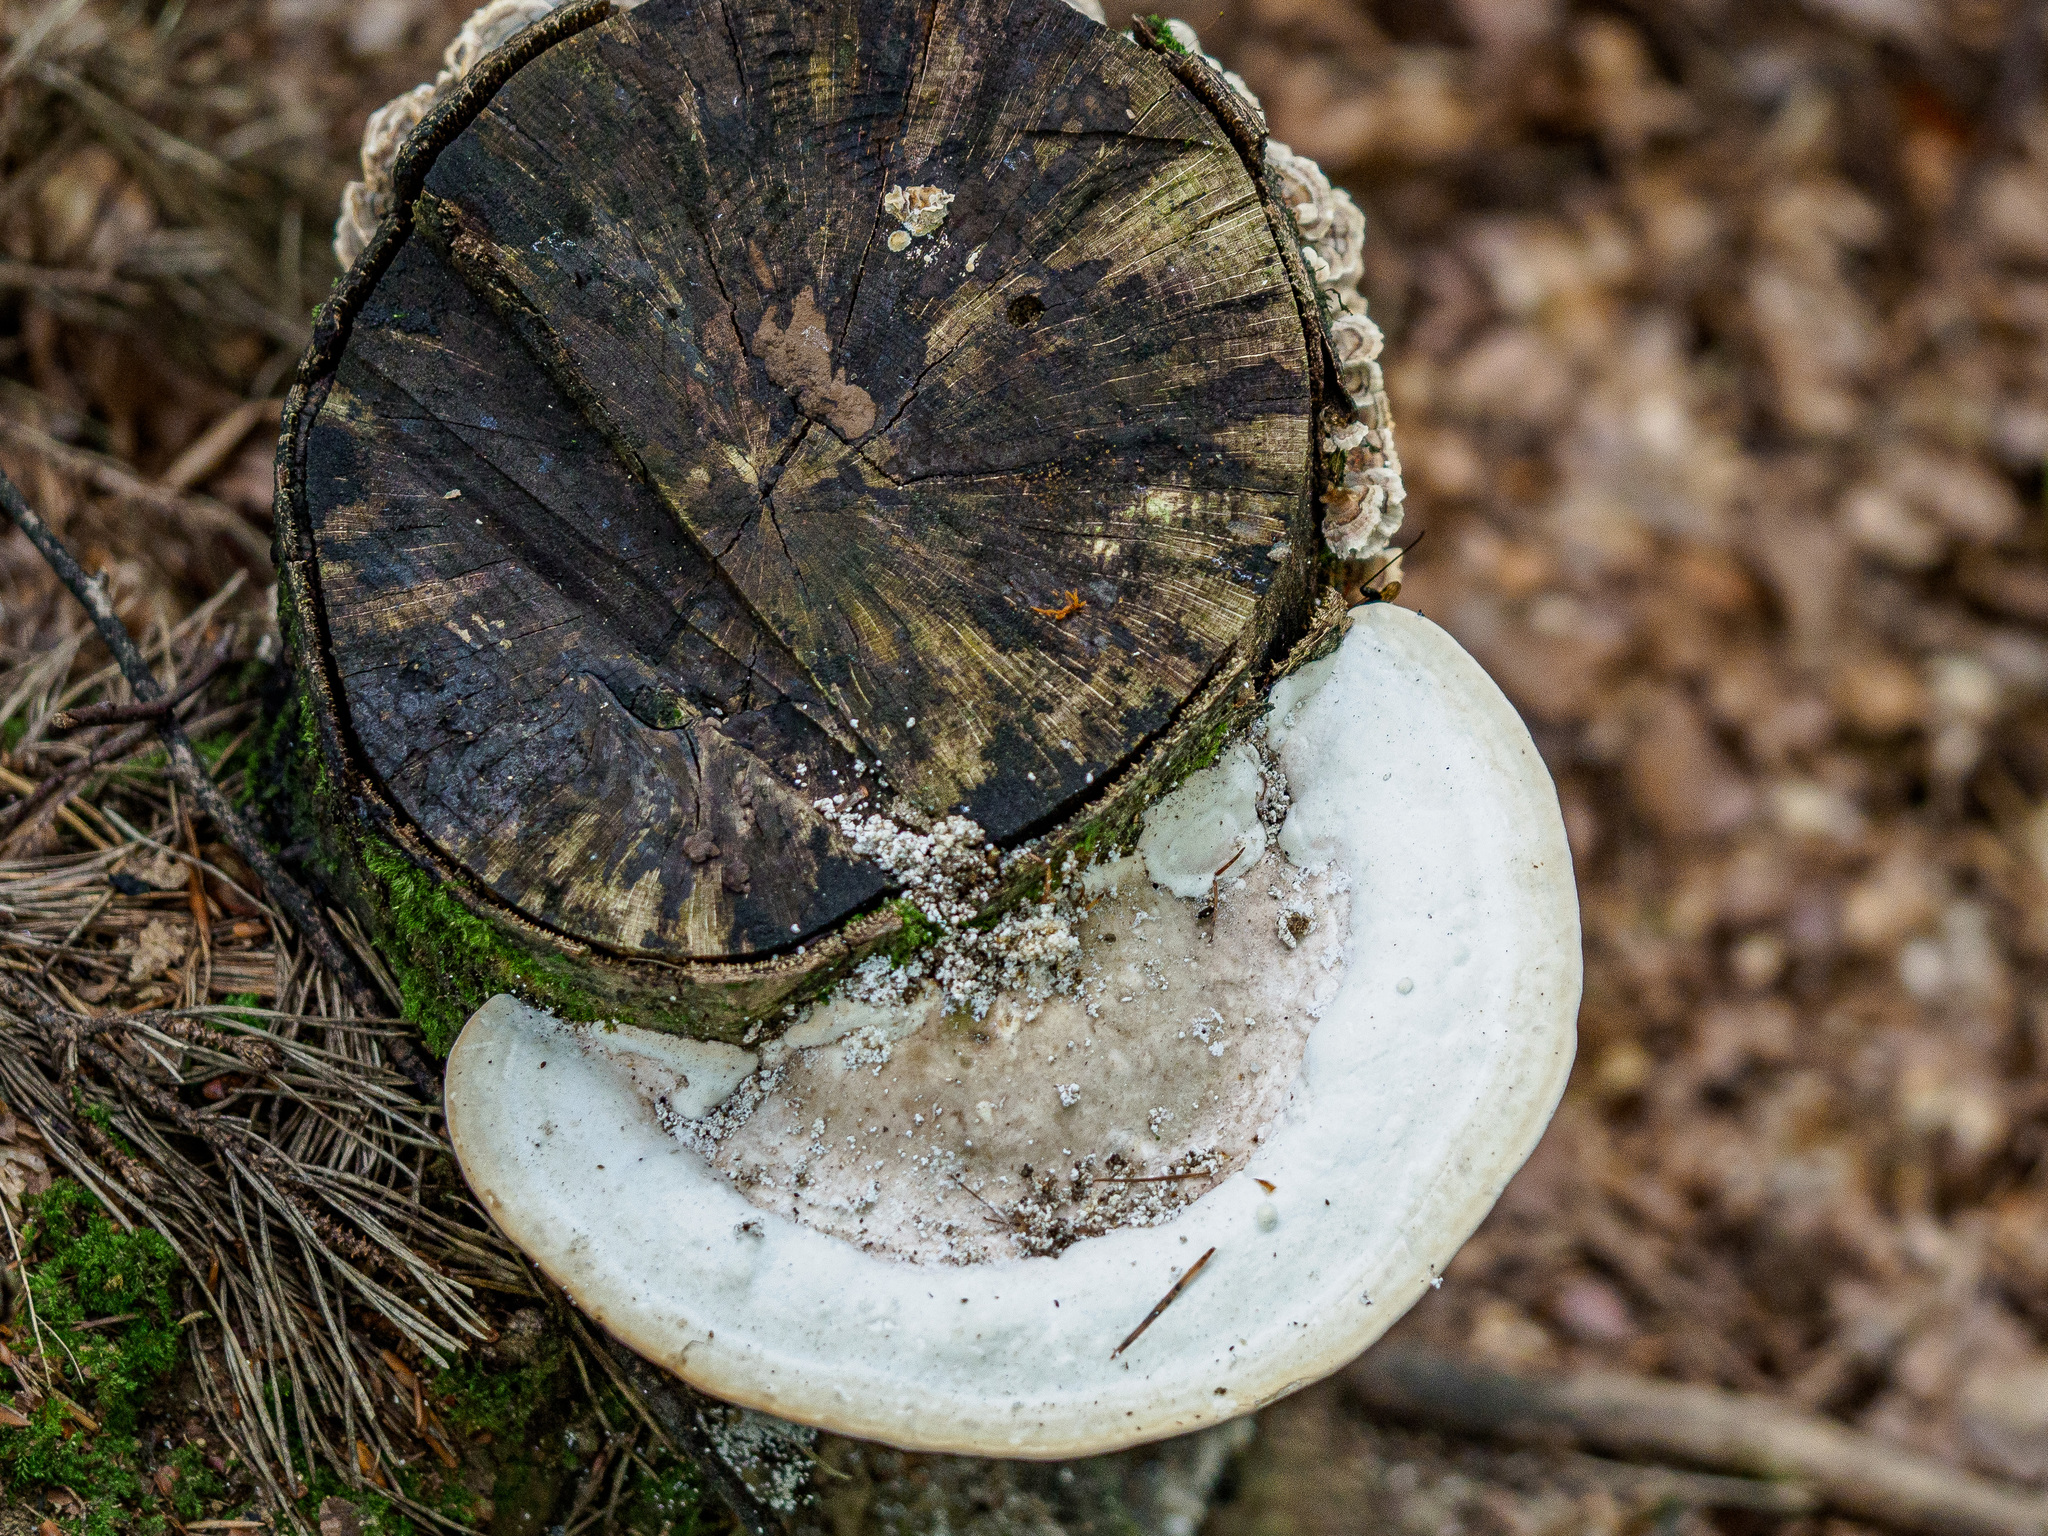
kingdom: Fungi
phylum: Basidiomycota
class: Agaricomycetes
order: Polyporales
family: Polyporaceae
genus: Trametes
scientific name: Trametes gibbosa
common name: Lumpy bracket
